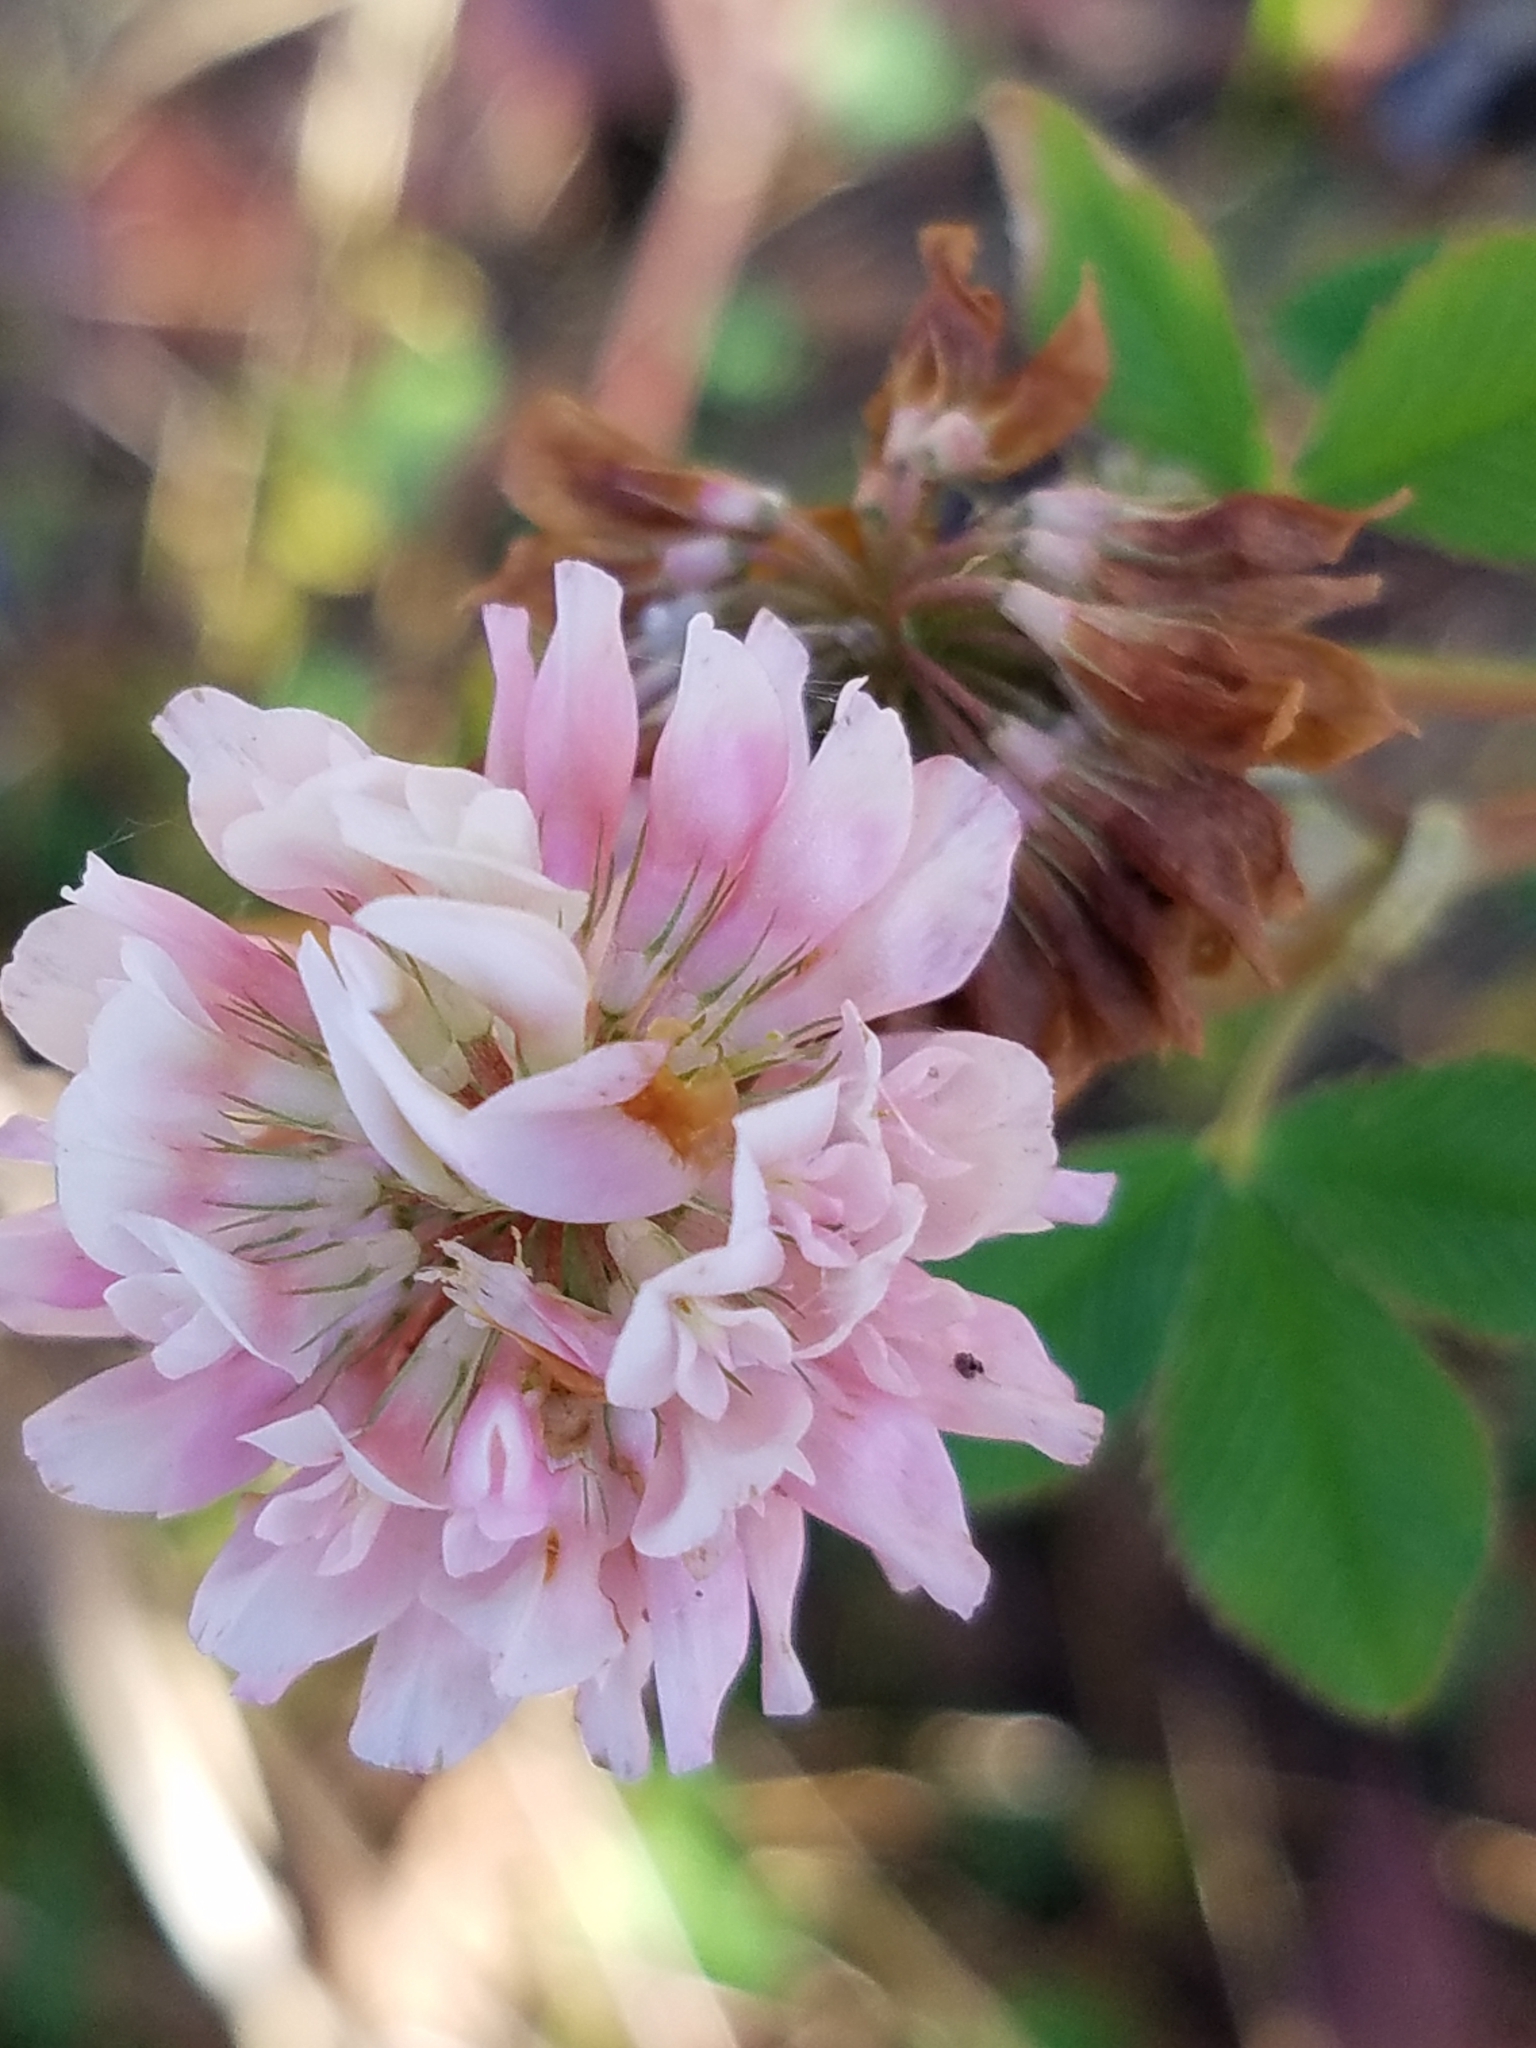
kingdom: Plantae
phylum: Tracheophyta
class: Magnoliopsida
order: Fabales
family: Fabaceae
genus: Trifolium
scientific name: Trifolium hybridum
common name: Alsike clover
